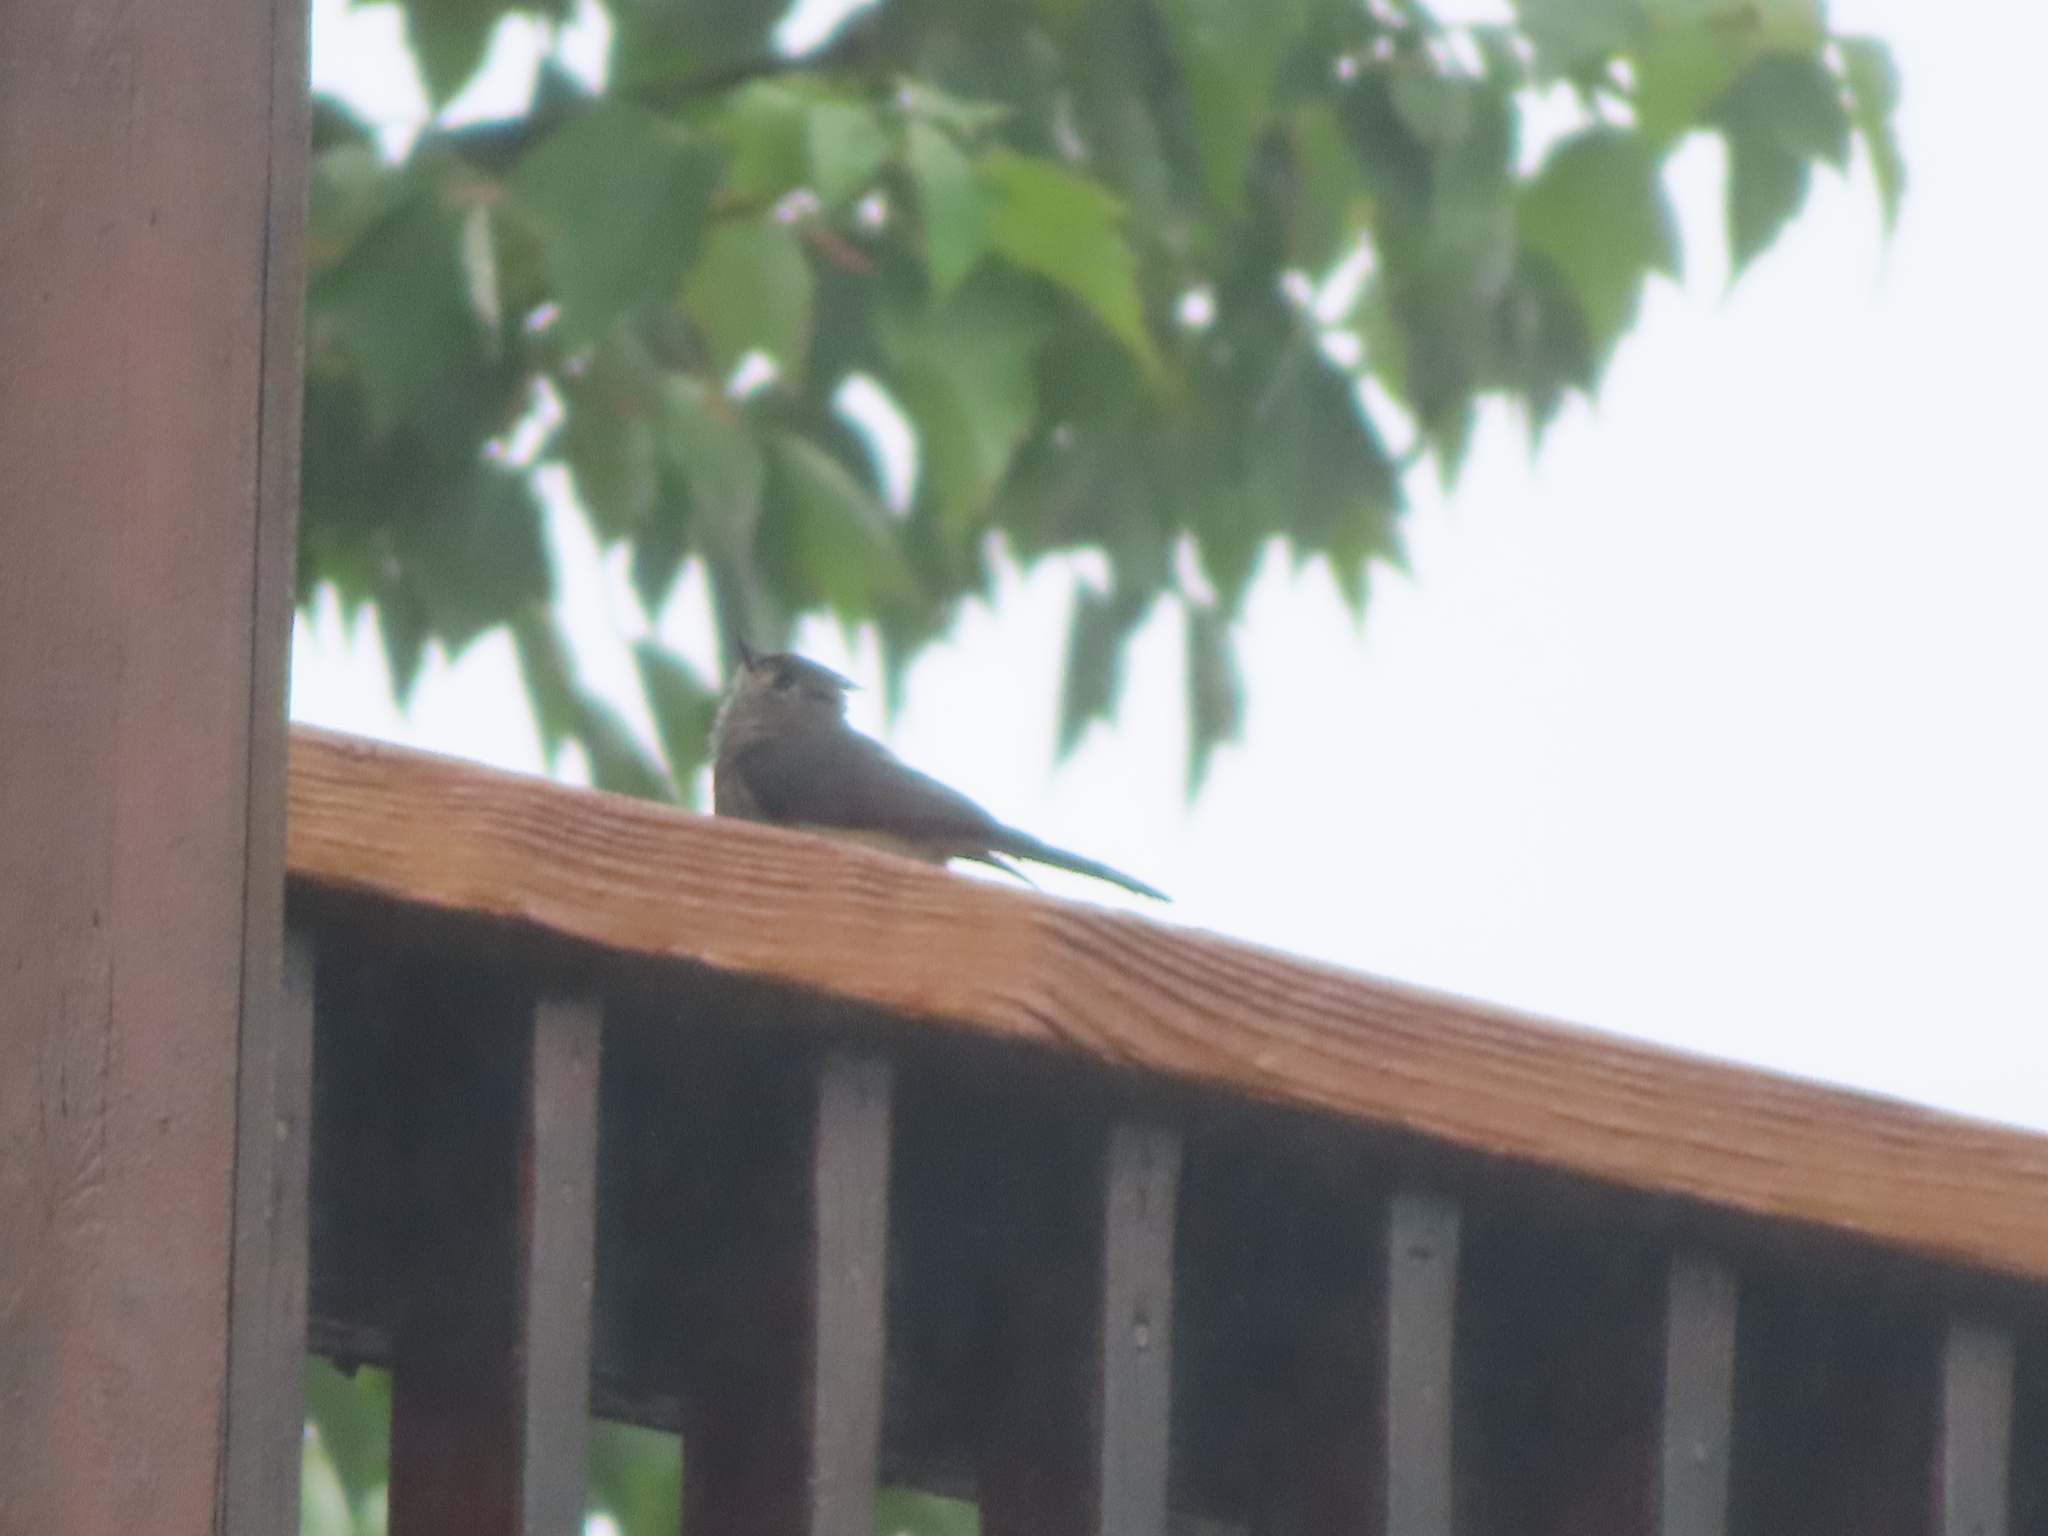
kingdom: Animalia
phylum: Chordata
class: Aves
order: Passeriformes
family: Paridae
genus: Baeolophus
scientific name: Baeolophus bicolor
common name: Tufted titmouse
